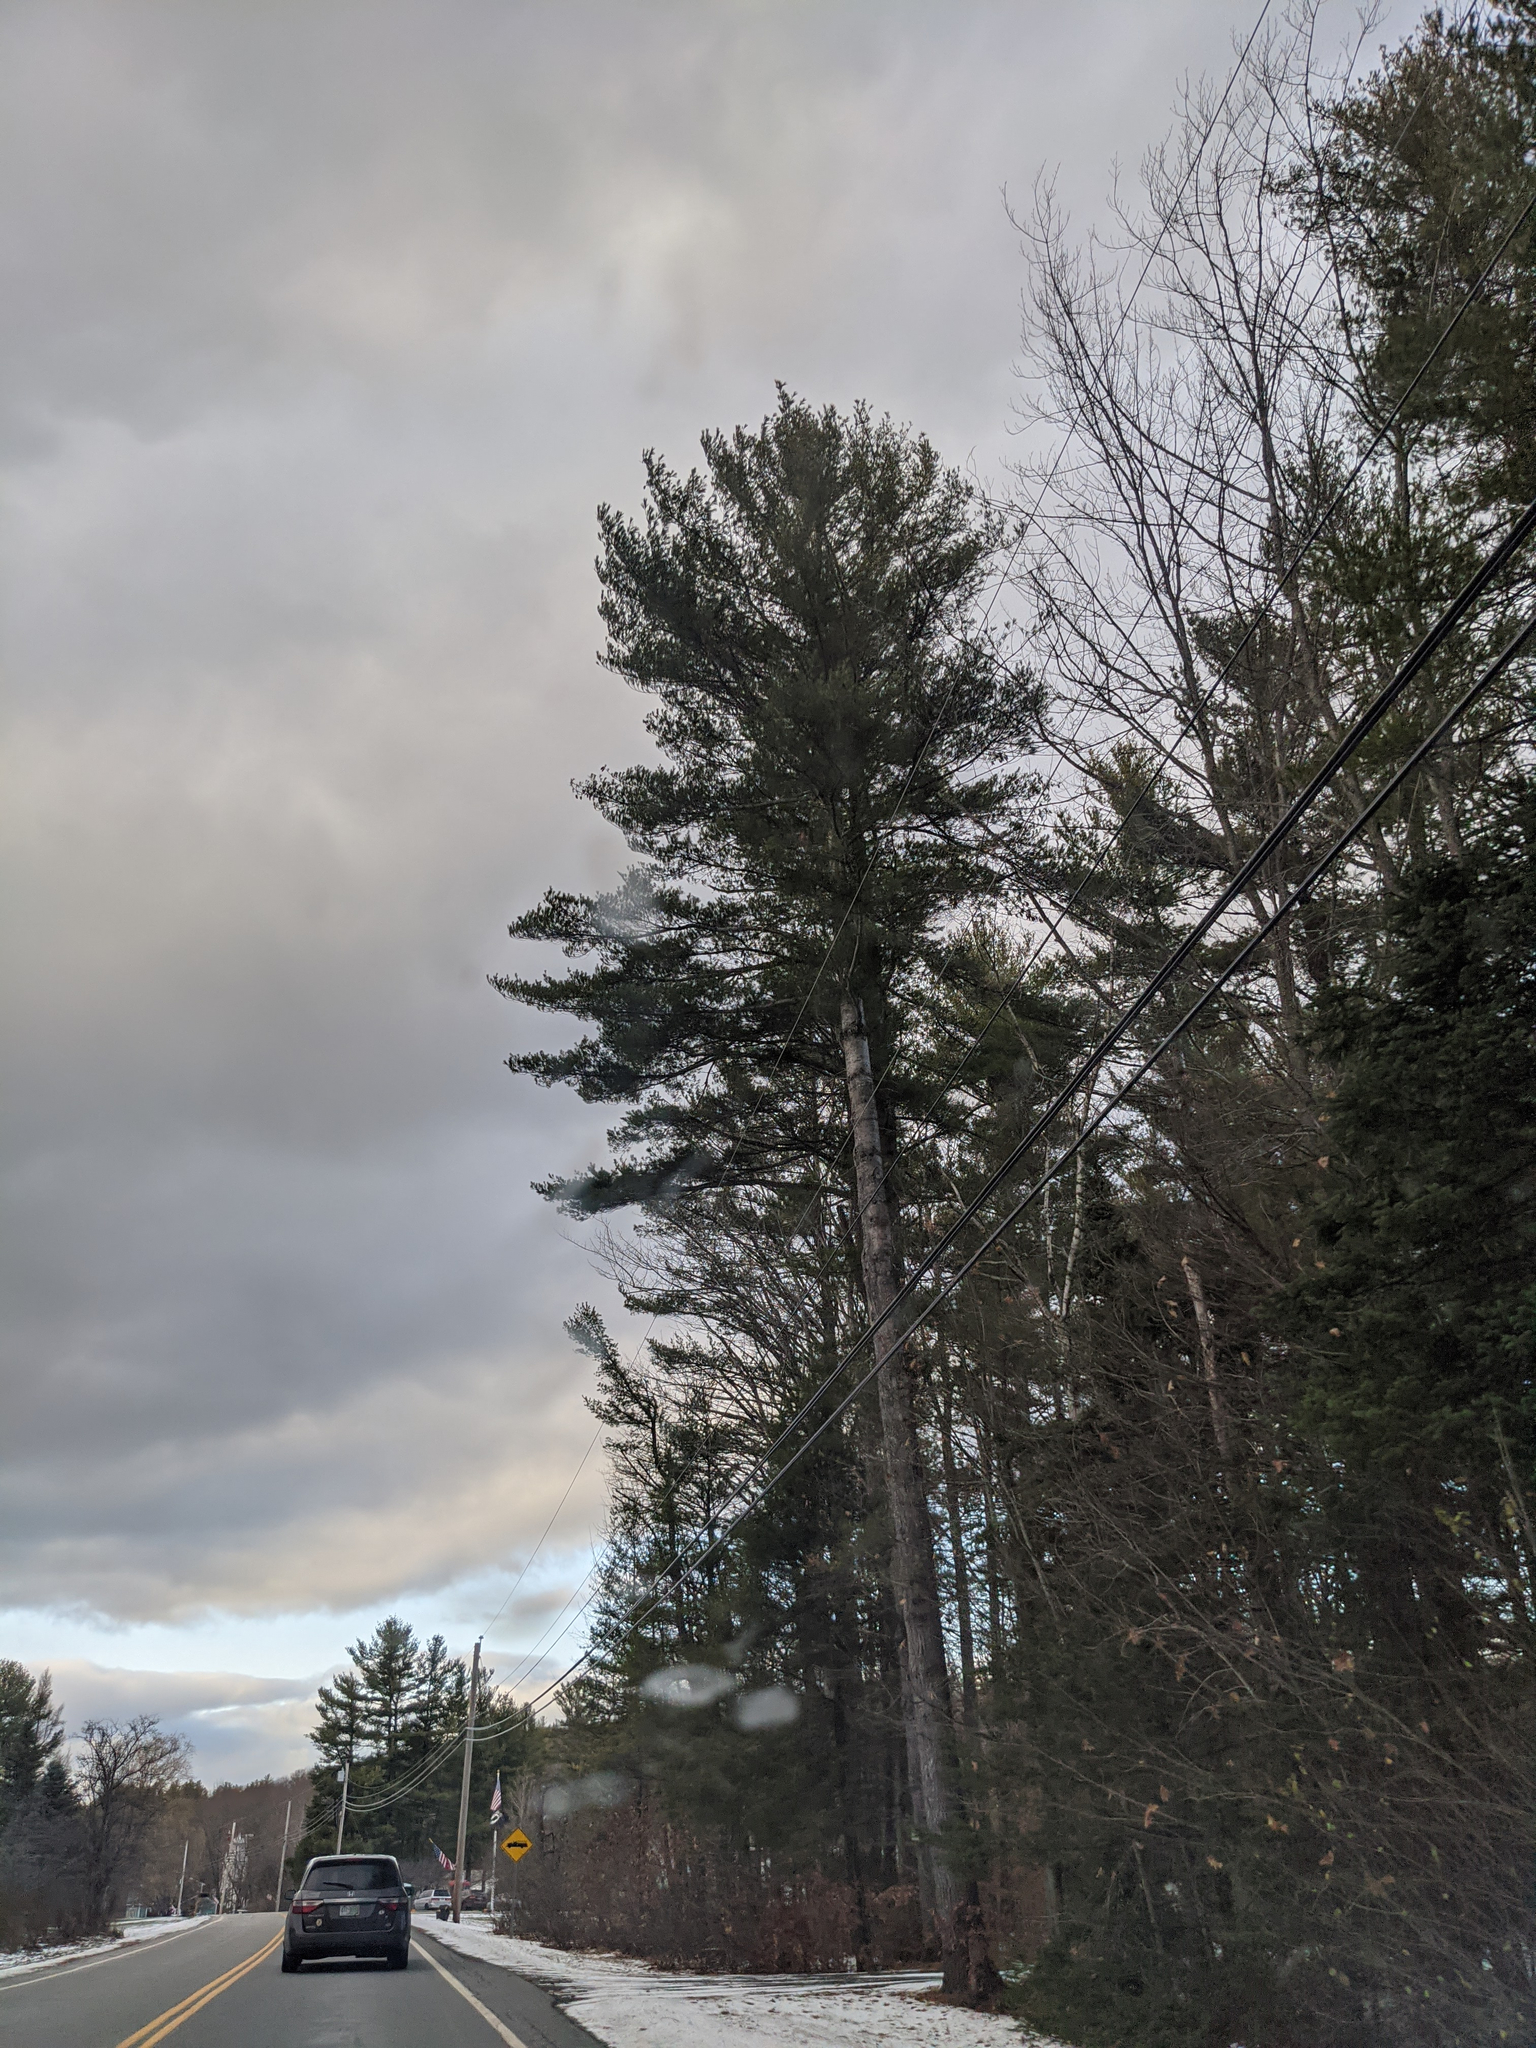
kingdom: Plantae
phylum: Tracheophyta
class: Pinopsida
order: Pinales
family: Pinaceae
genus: Pinus
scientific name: Pinus strobus
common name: Weymouth pine
